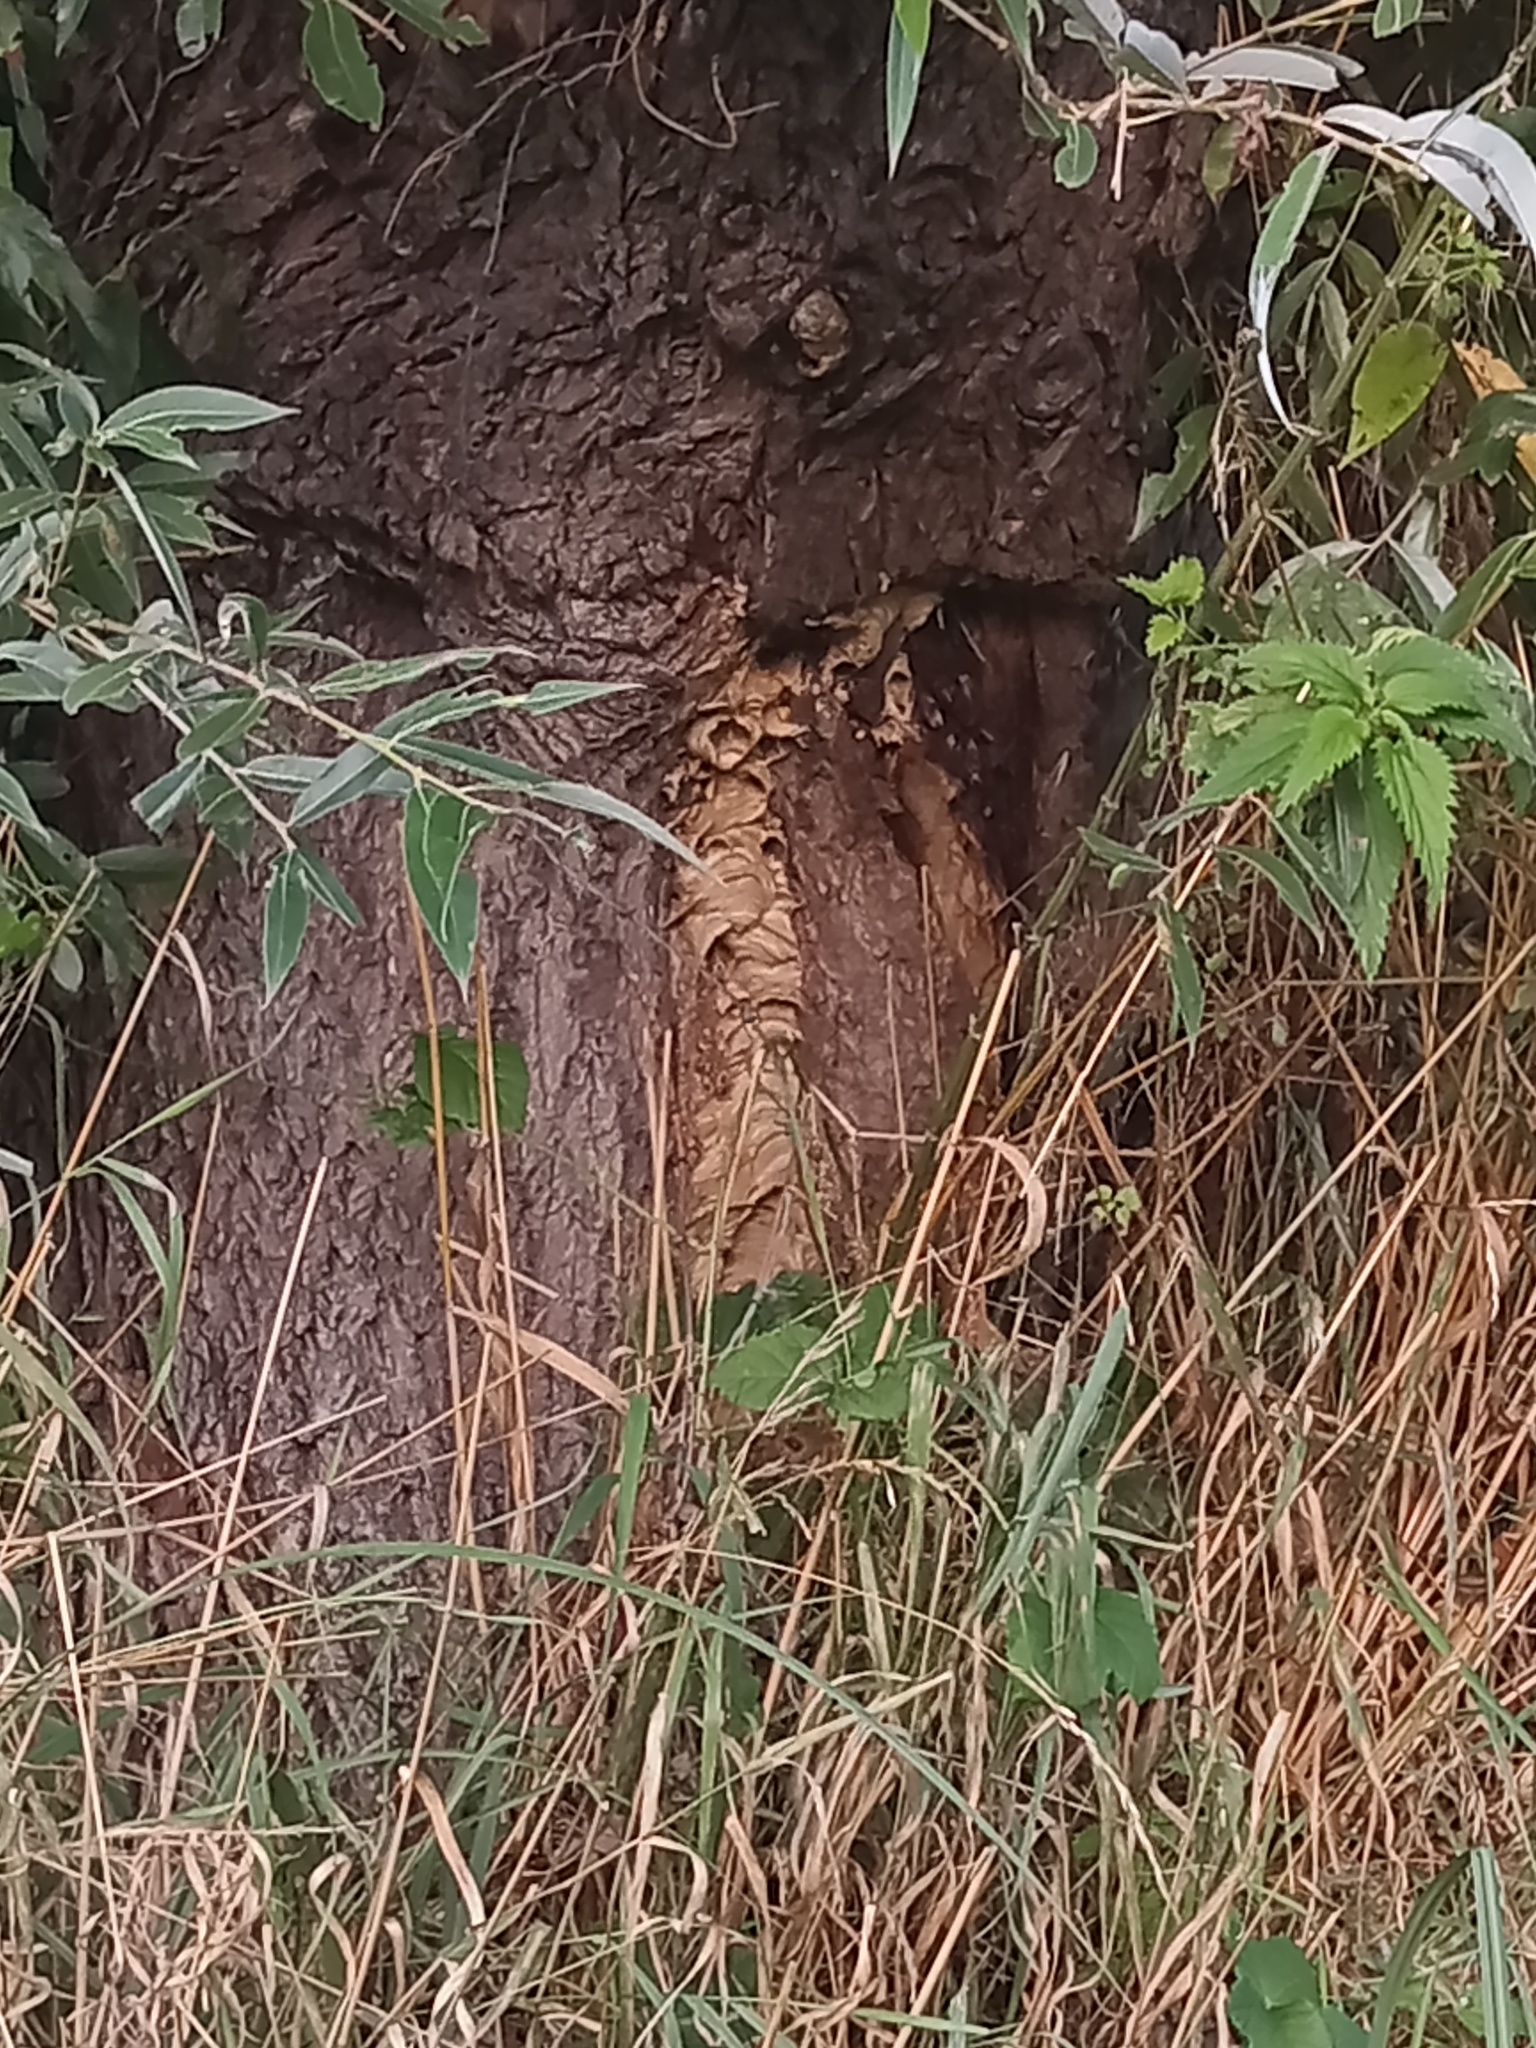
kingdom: Animalia
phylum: Arthropoda
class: Insecta
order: Hymenoptera
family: Vespidae
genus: Vespa
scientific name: Vespa crabro
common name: Hornet
